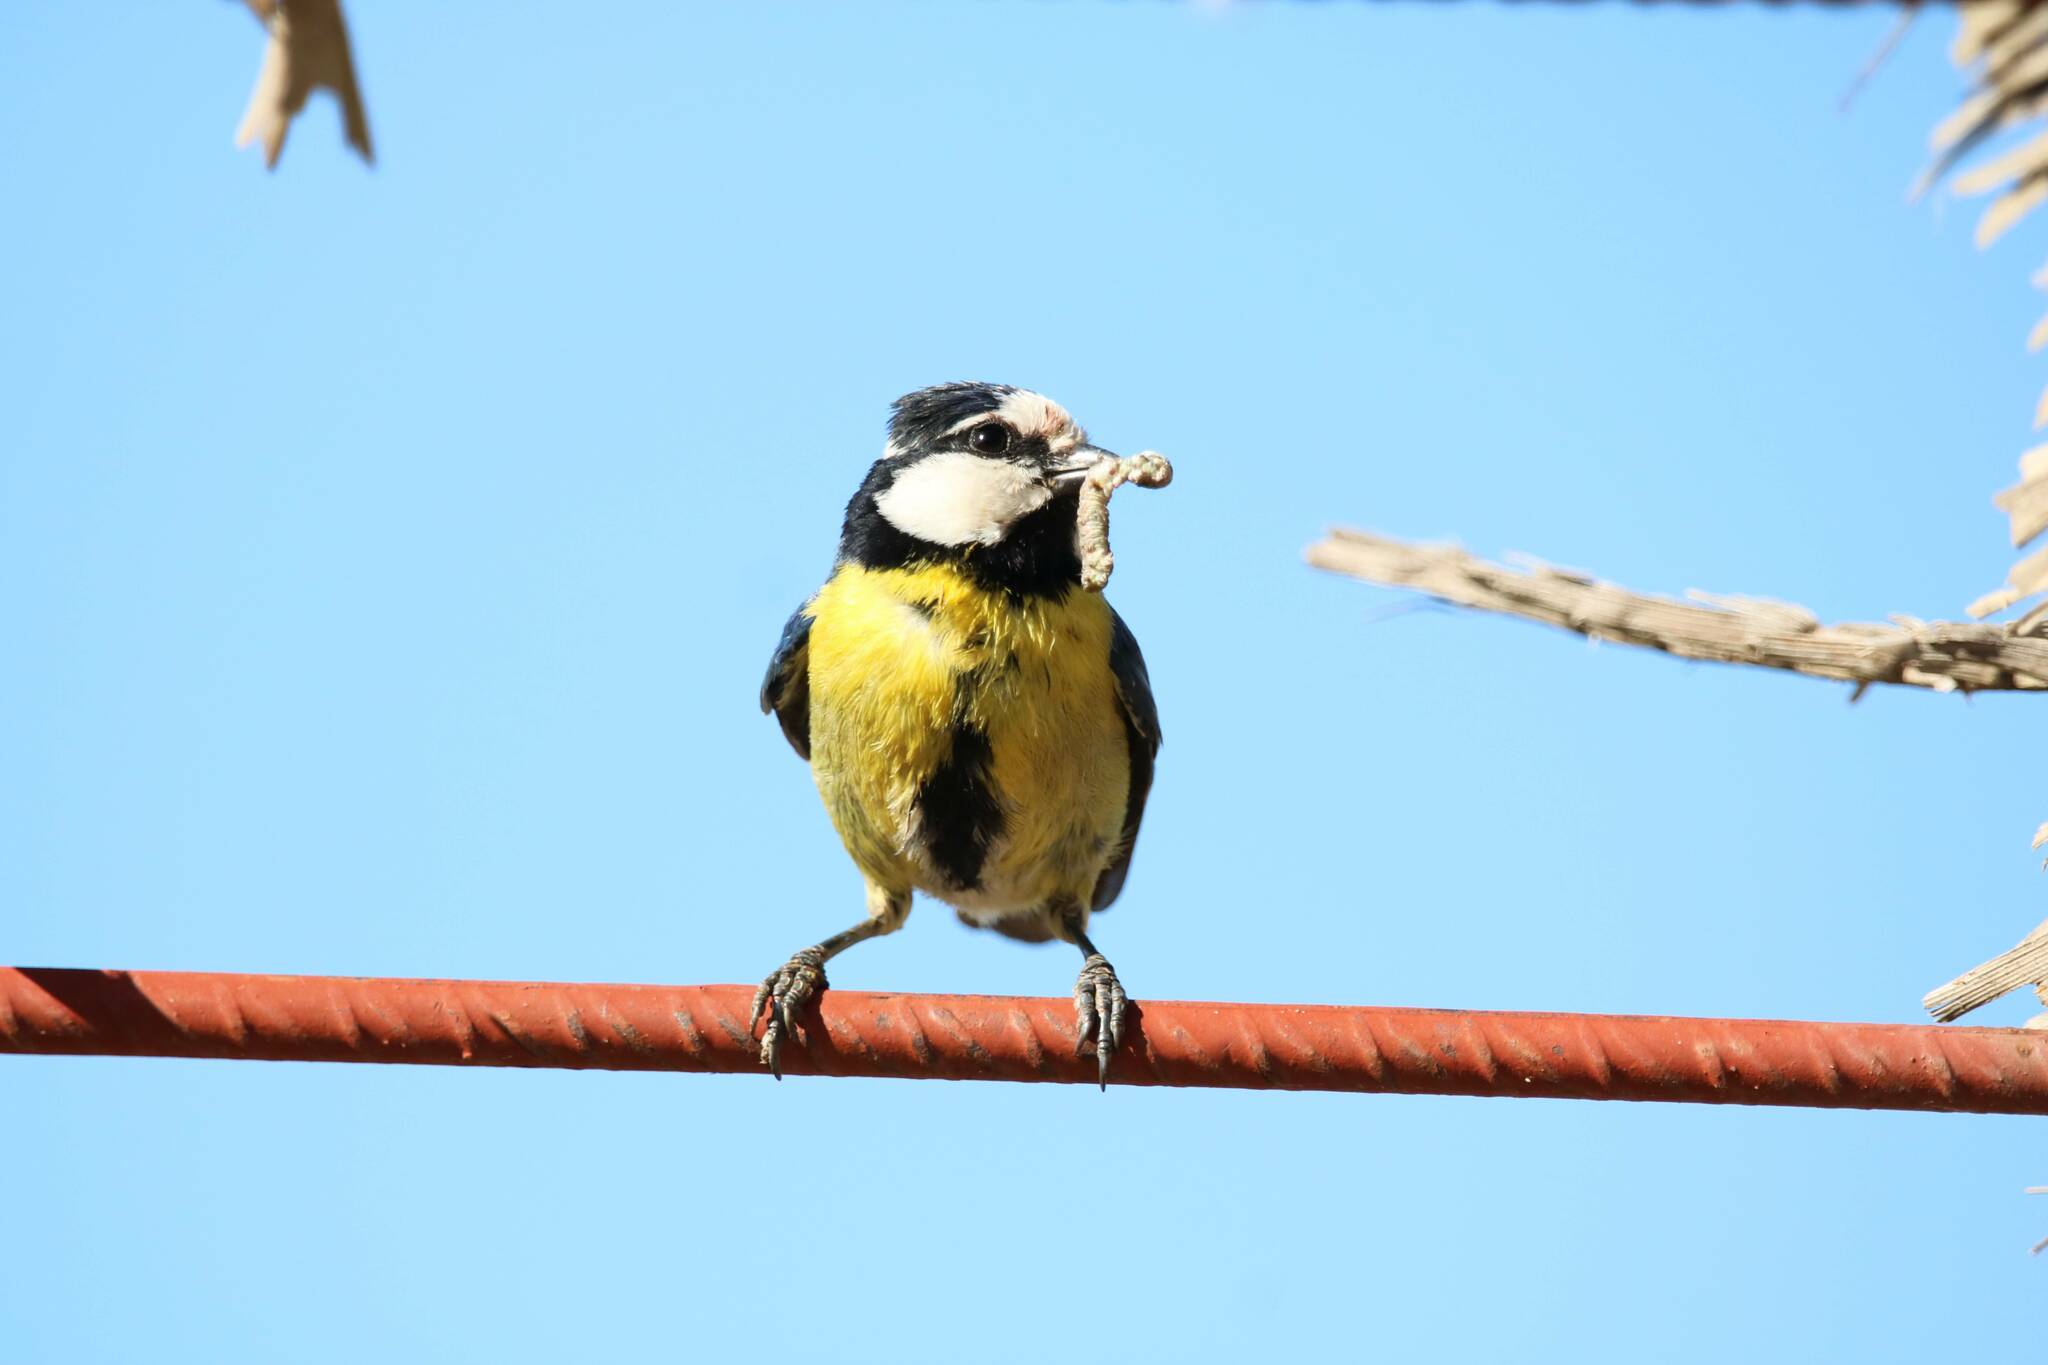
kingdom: Animalia
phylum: Chordata
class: Aves
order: Passeriformes
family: Paridae
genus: Cyanistes
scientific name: Cyanistes teneriffae
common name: African blue tit
